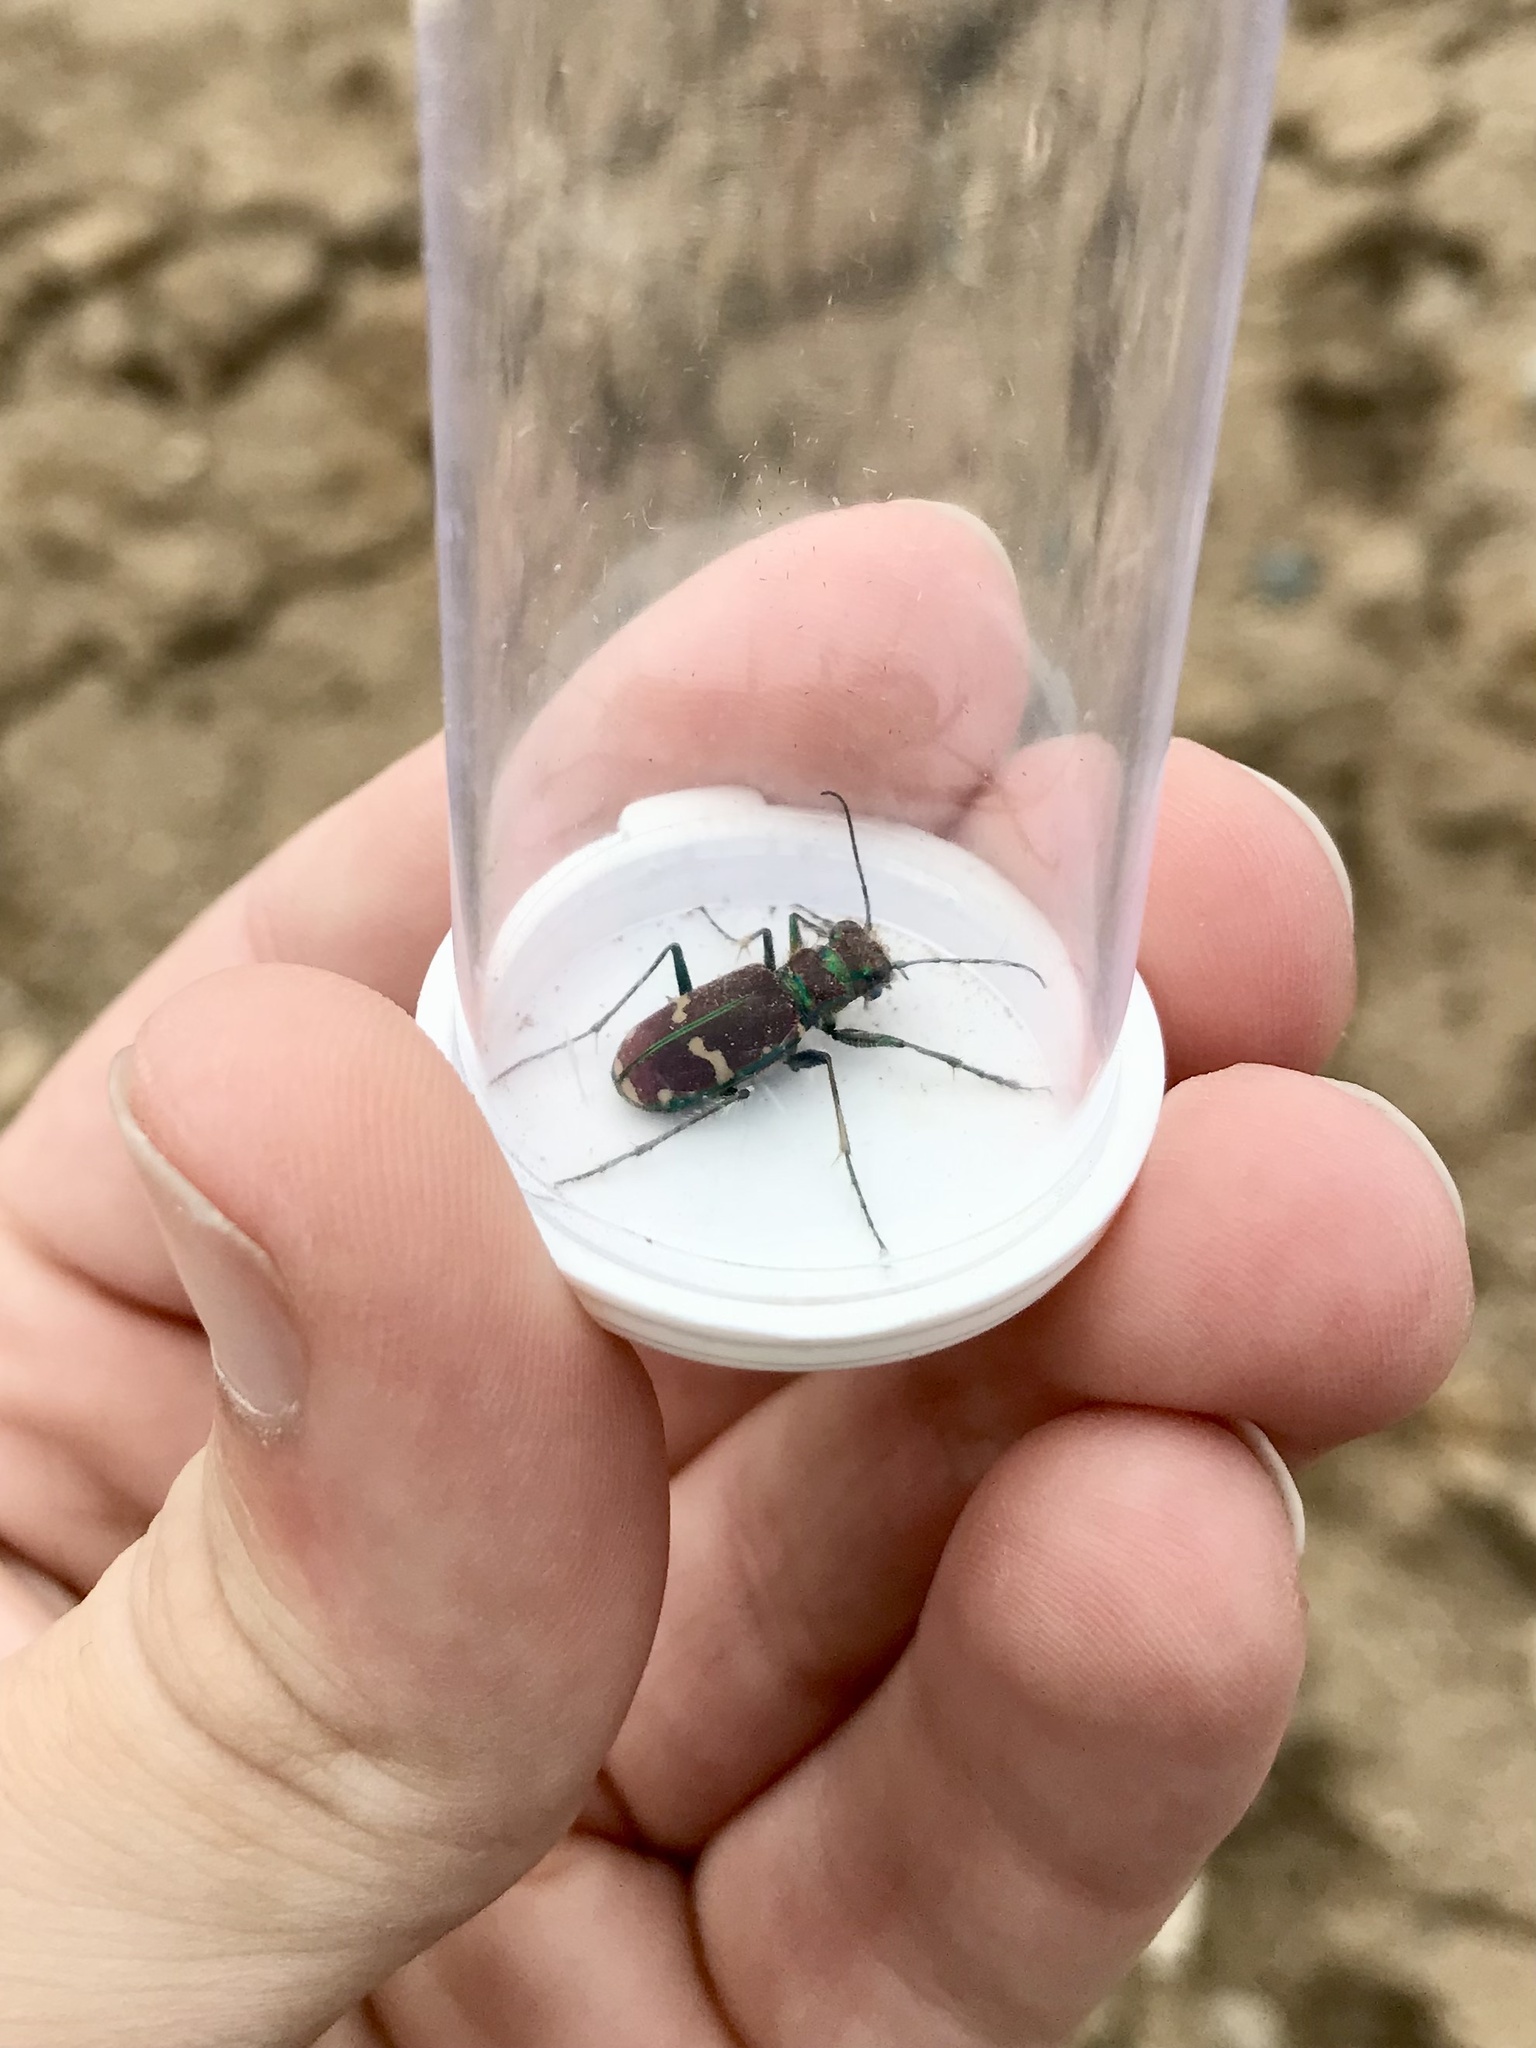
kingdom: Animalia
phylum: Arthropoda
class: Insecta
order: Coleoptera
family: Carabidae
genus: Cicindela
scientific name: Cicindela limbalis
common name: Common claybank tiger beetle
